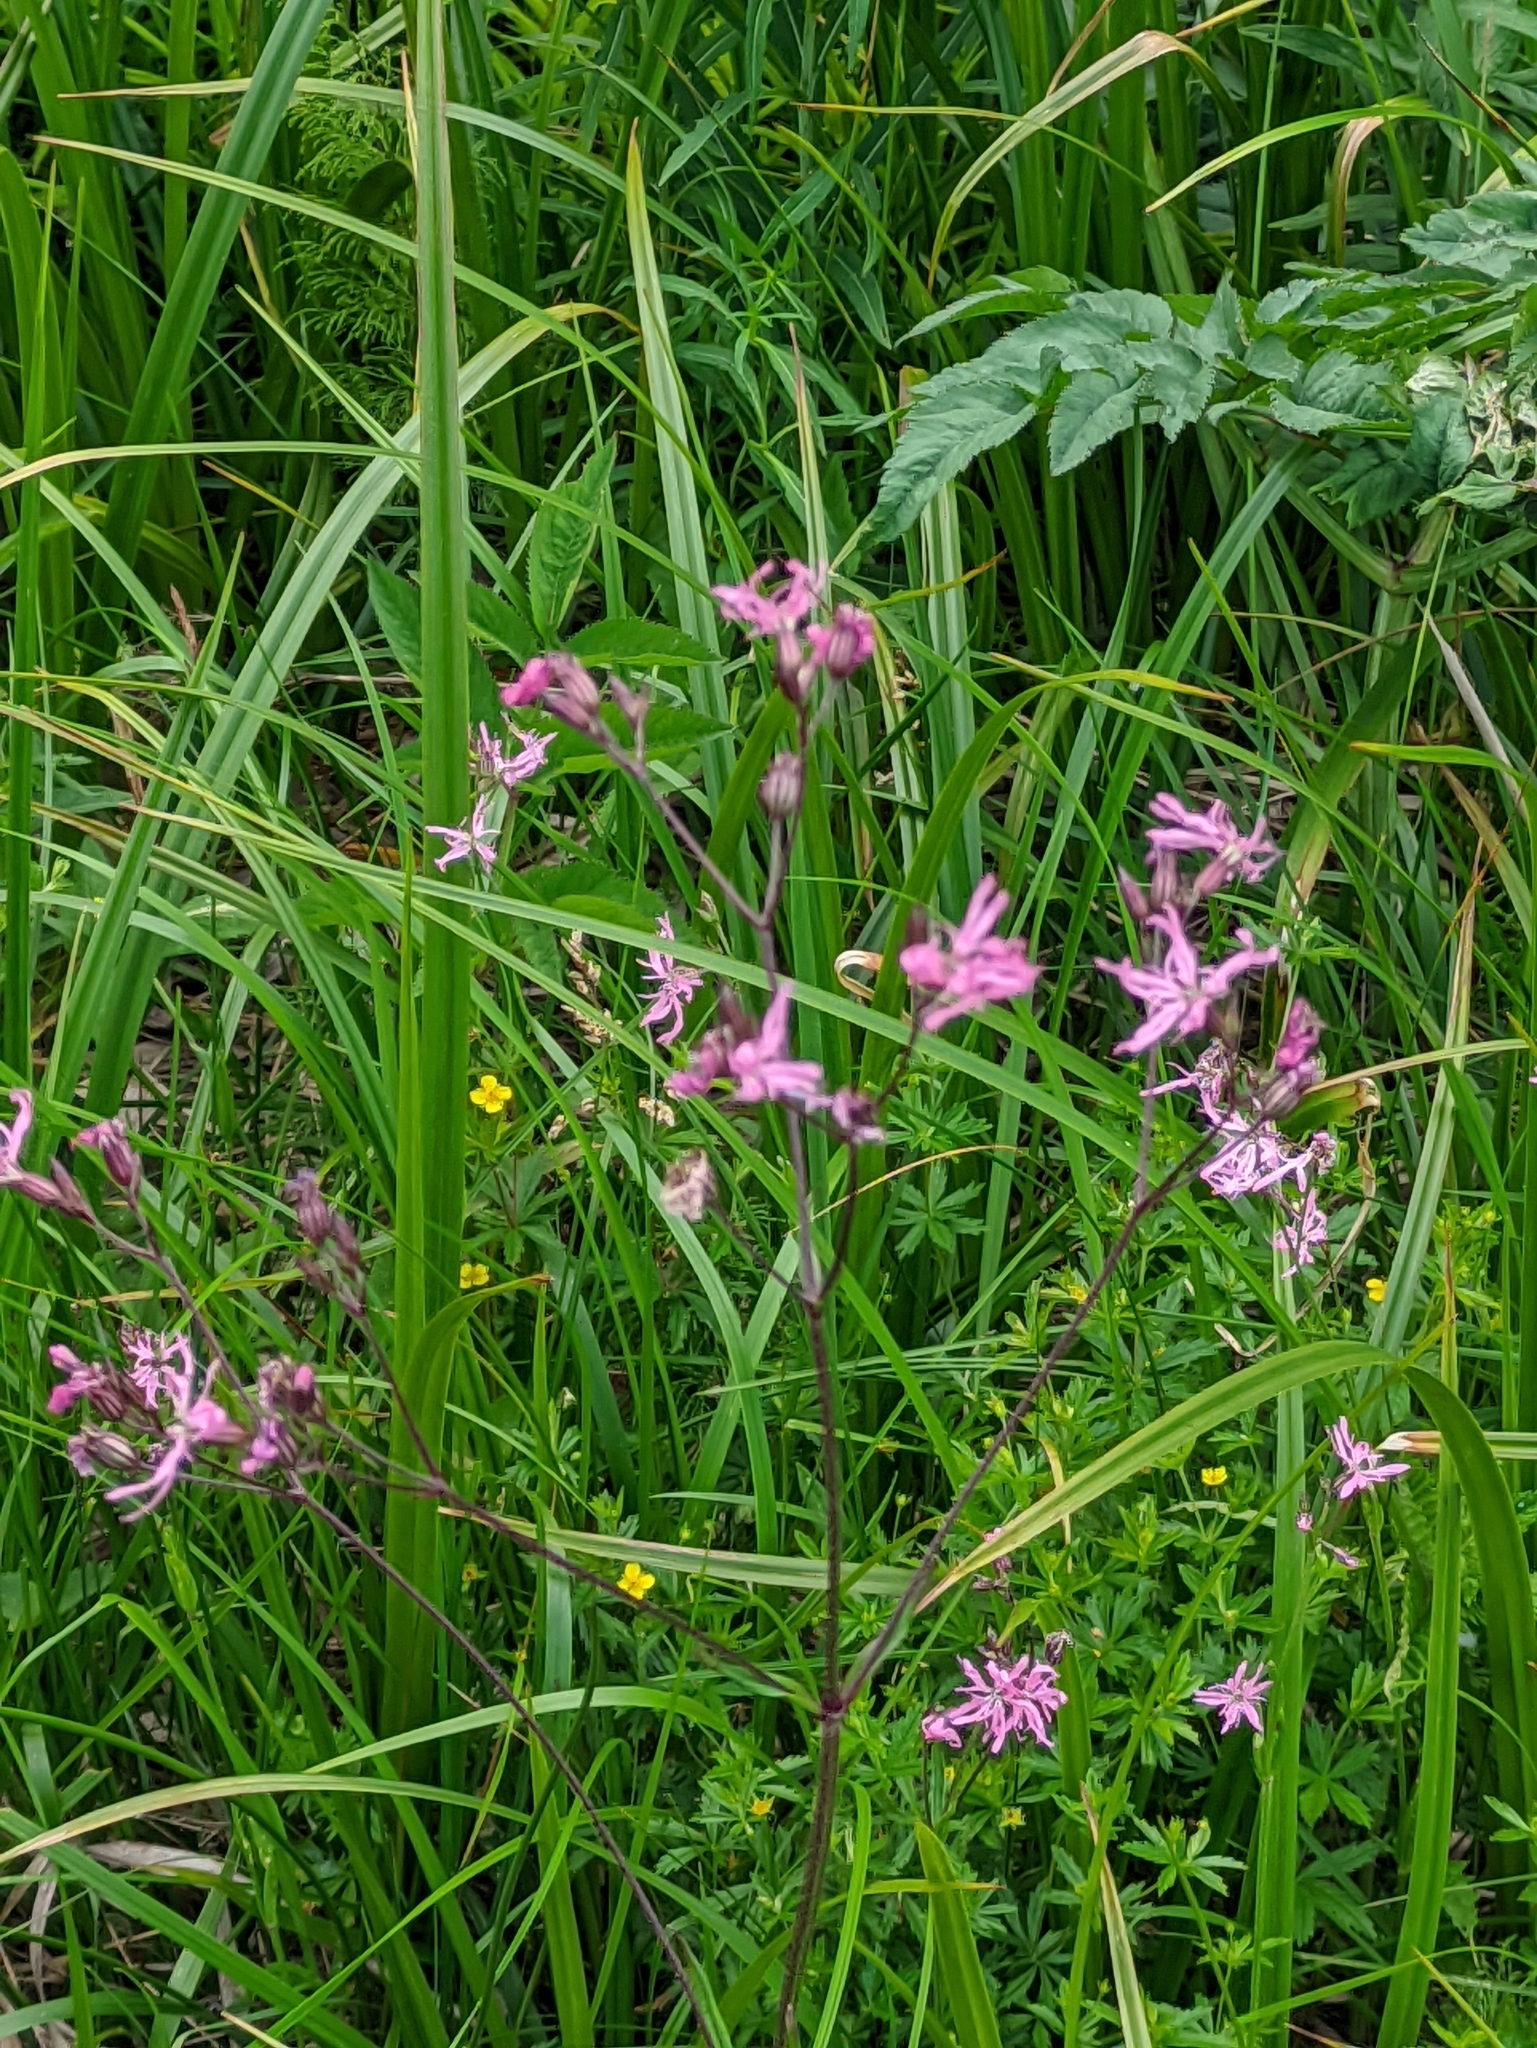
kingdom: Plantae
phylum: Tracheophyta
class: Magnoliopsida
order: Caryophyllales
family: Caryophyllaceae
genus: Silene
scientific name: Silene flos-cuculi
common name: Ragged-robin
